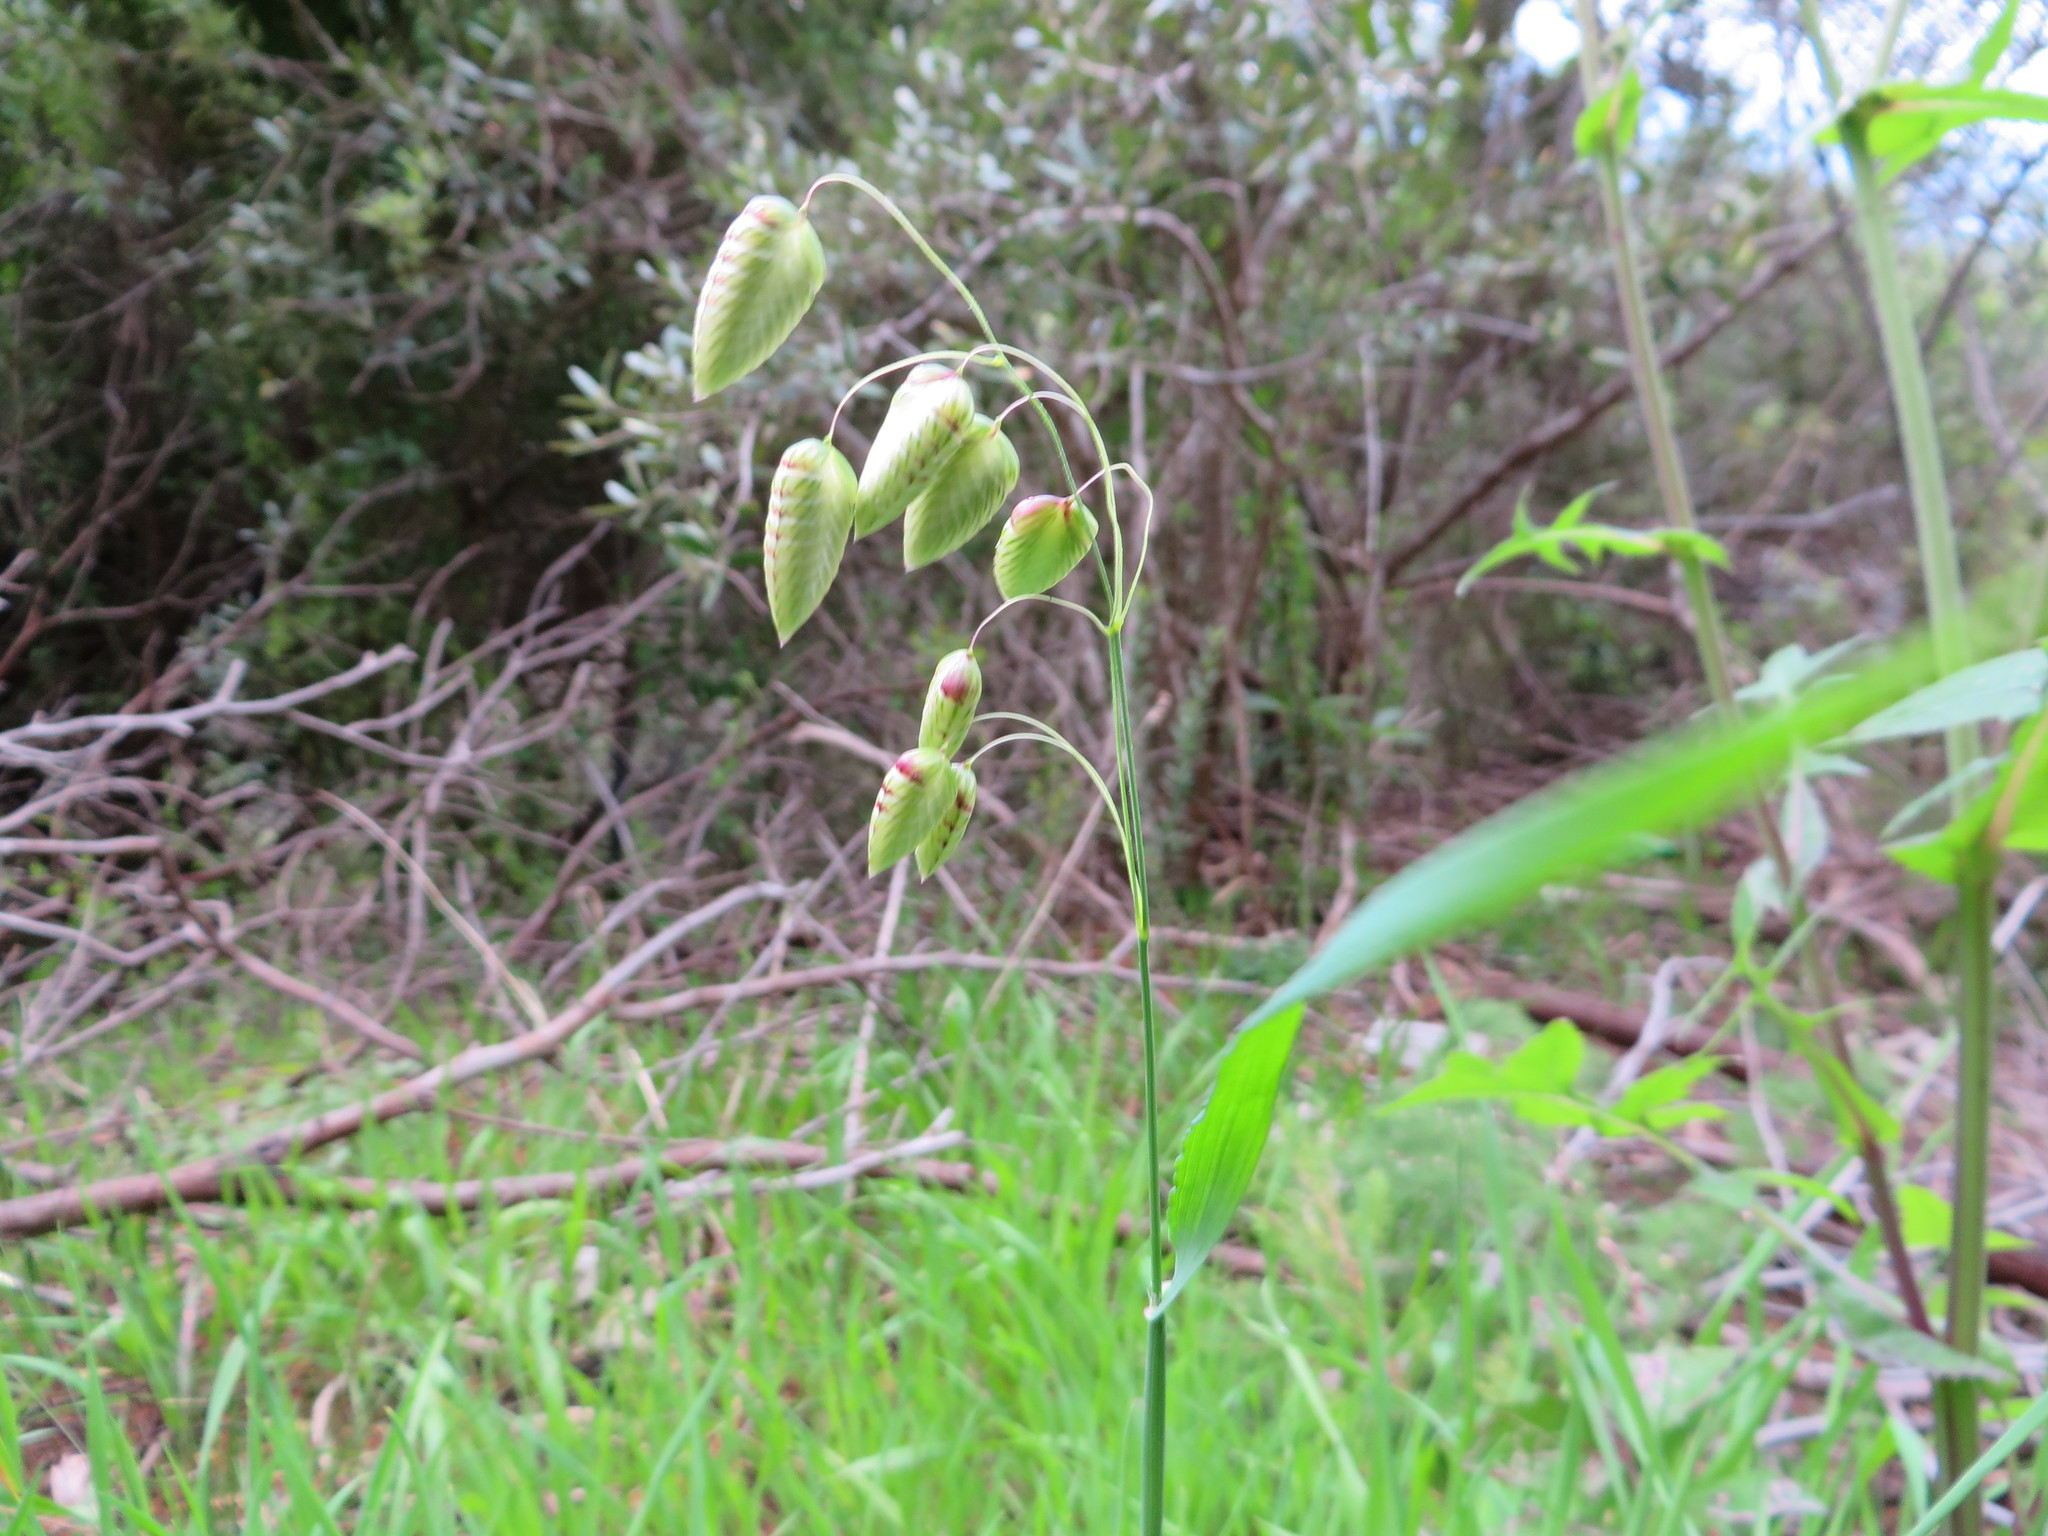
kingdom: Plantae
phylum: Tracheophyta
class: Liliopsida
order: Poales
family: Poaceae
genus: Briza
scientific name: Briza maxima
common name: Big quakinggrass
